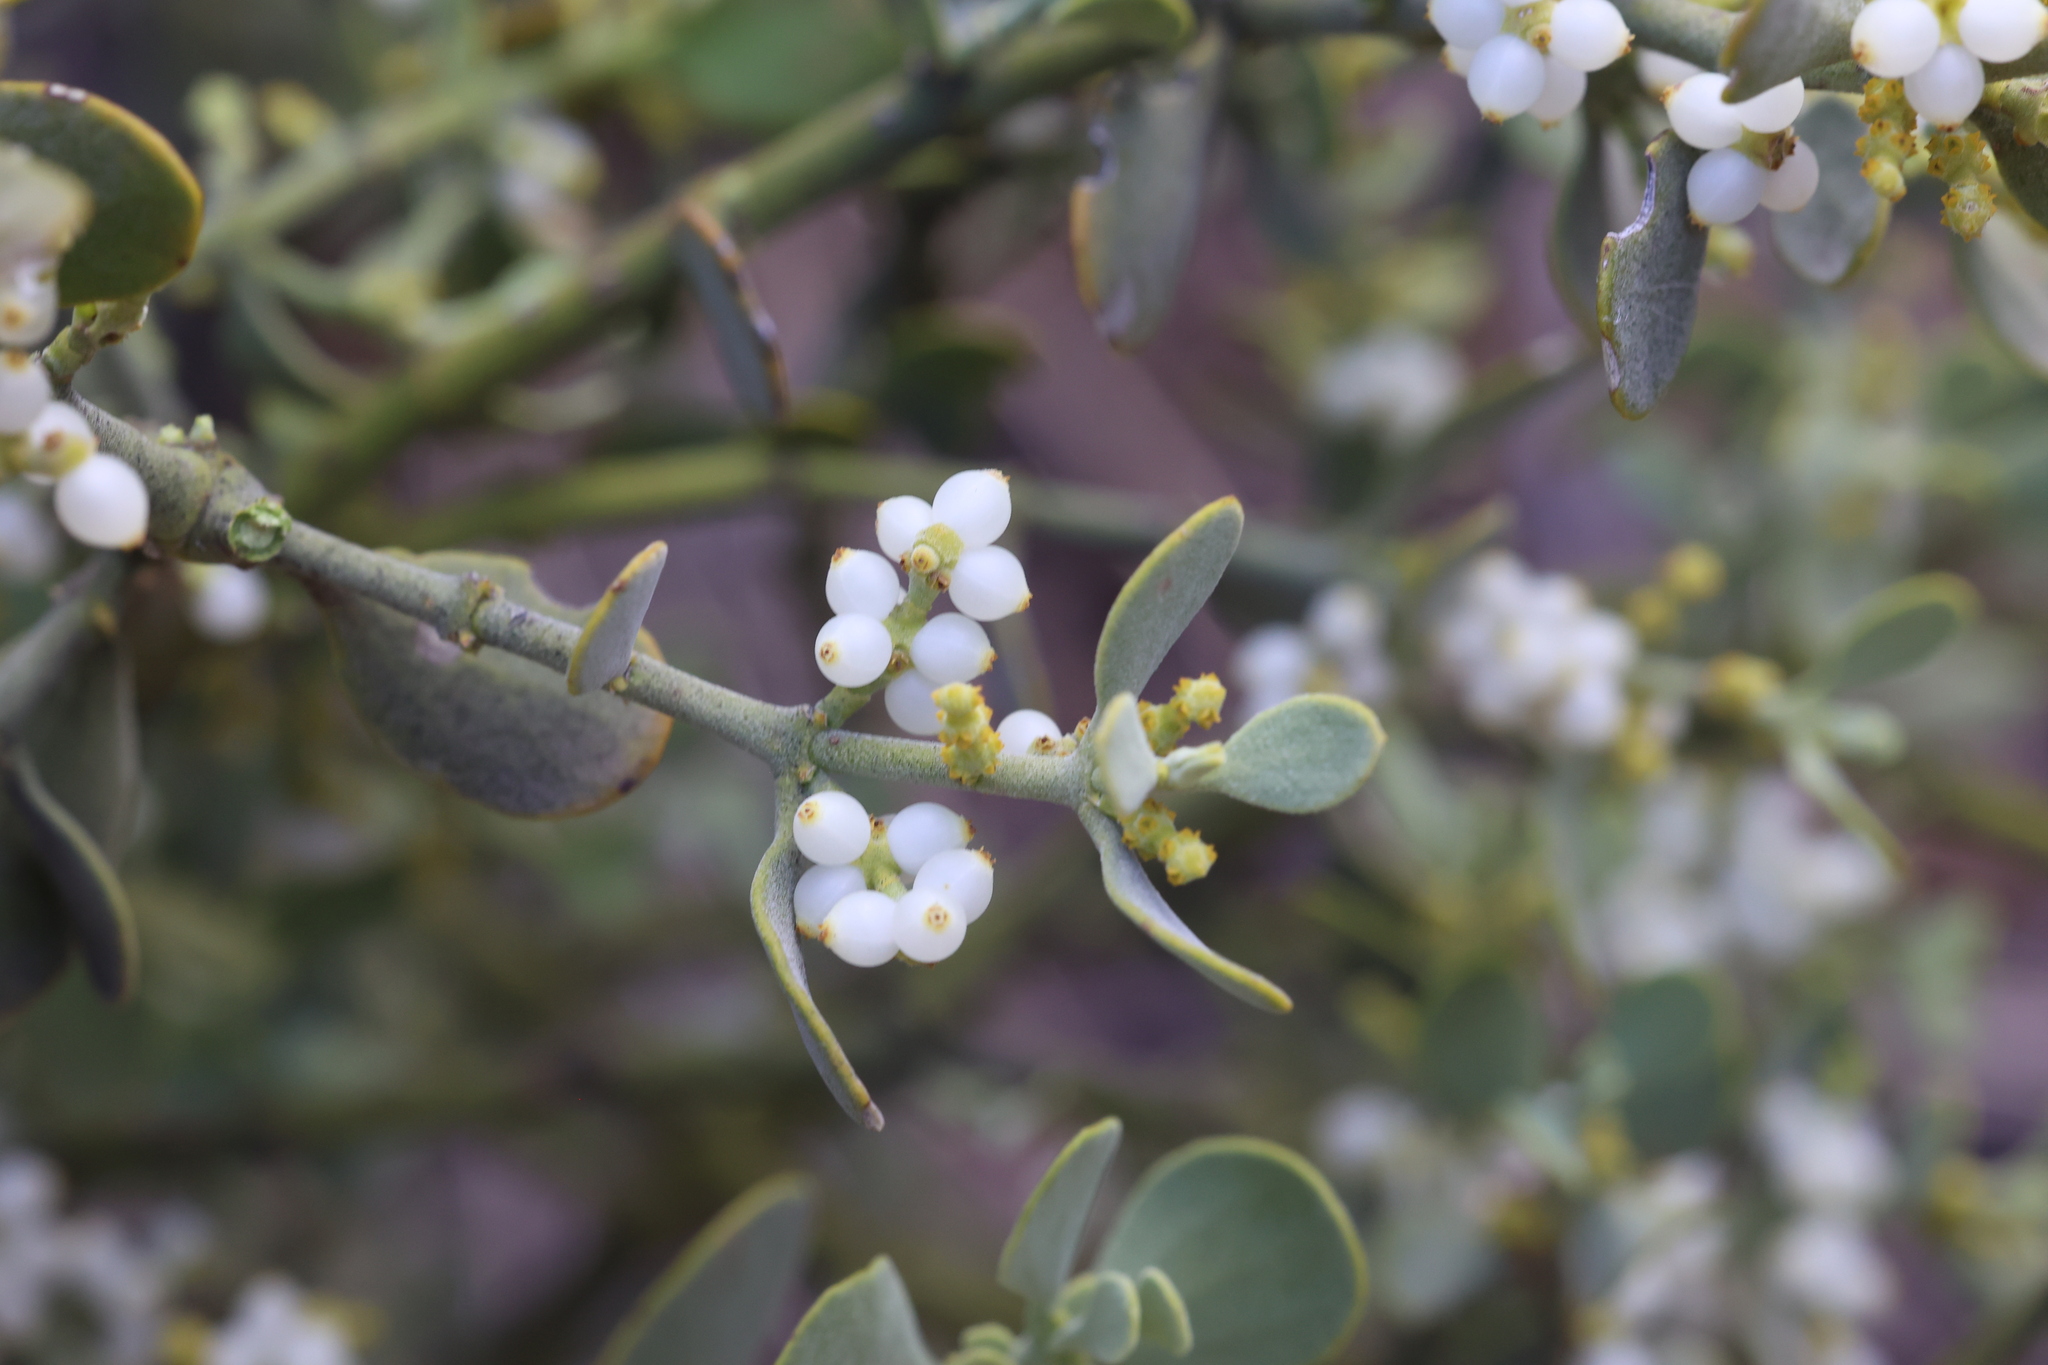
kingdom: Plantae
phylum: Tracheophyta
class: Magnoliopsida
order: Santalales
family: Viscaceae
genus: Phoradendron
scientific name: Phoradendron coryae
